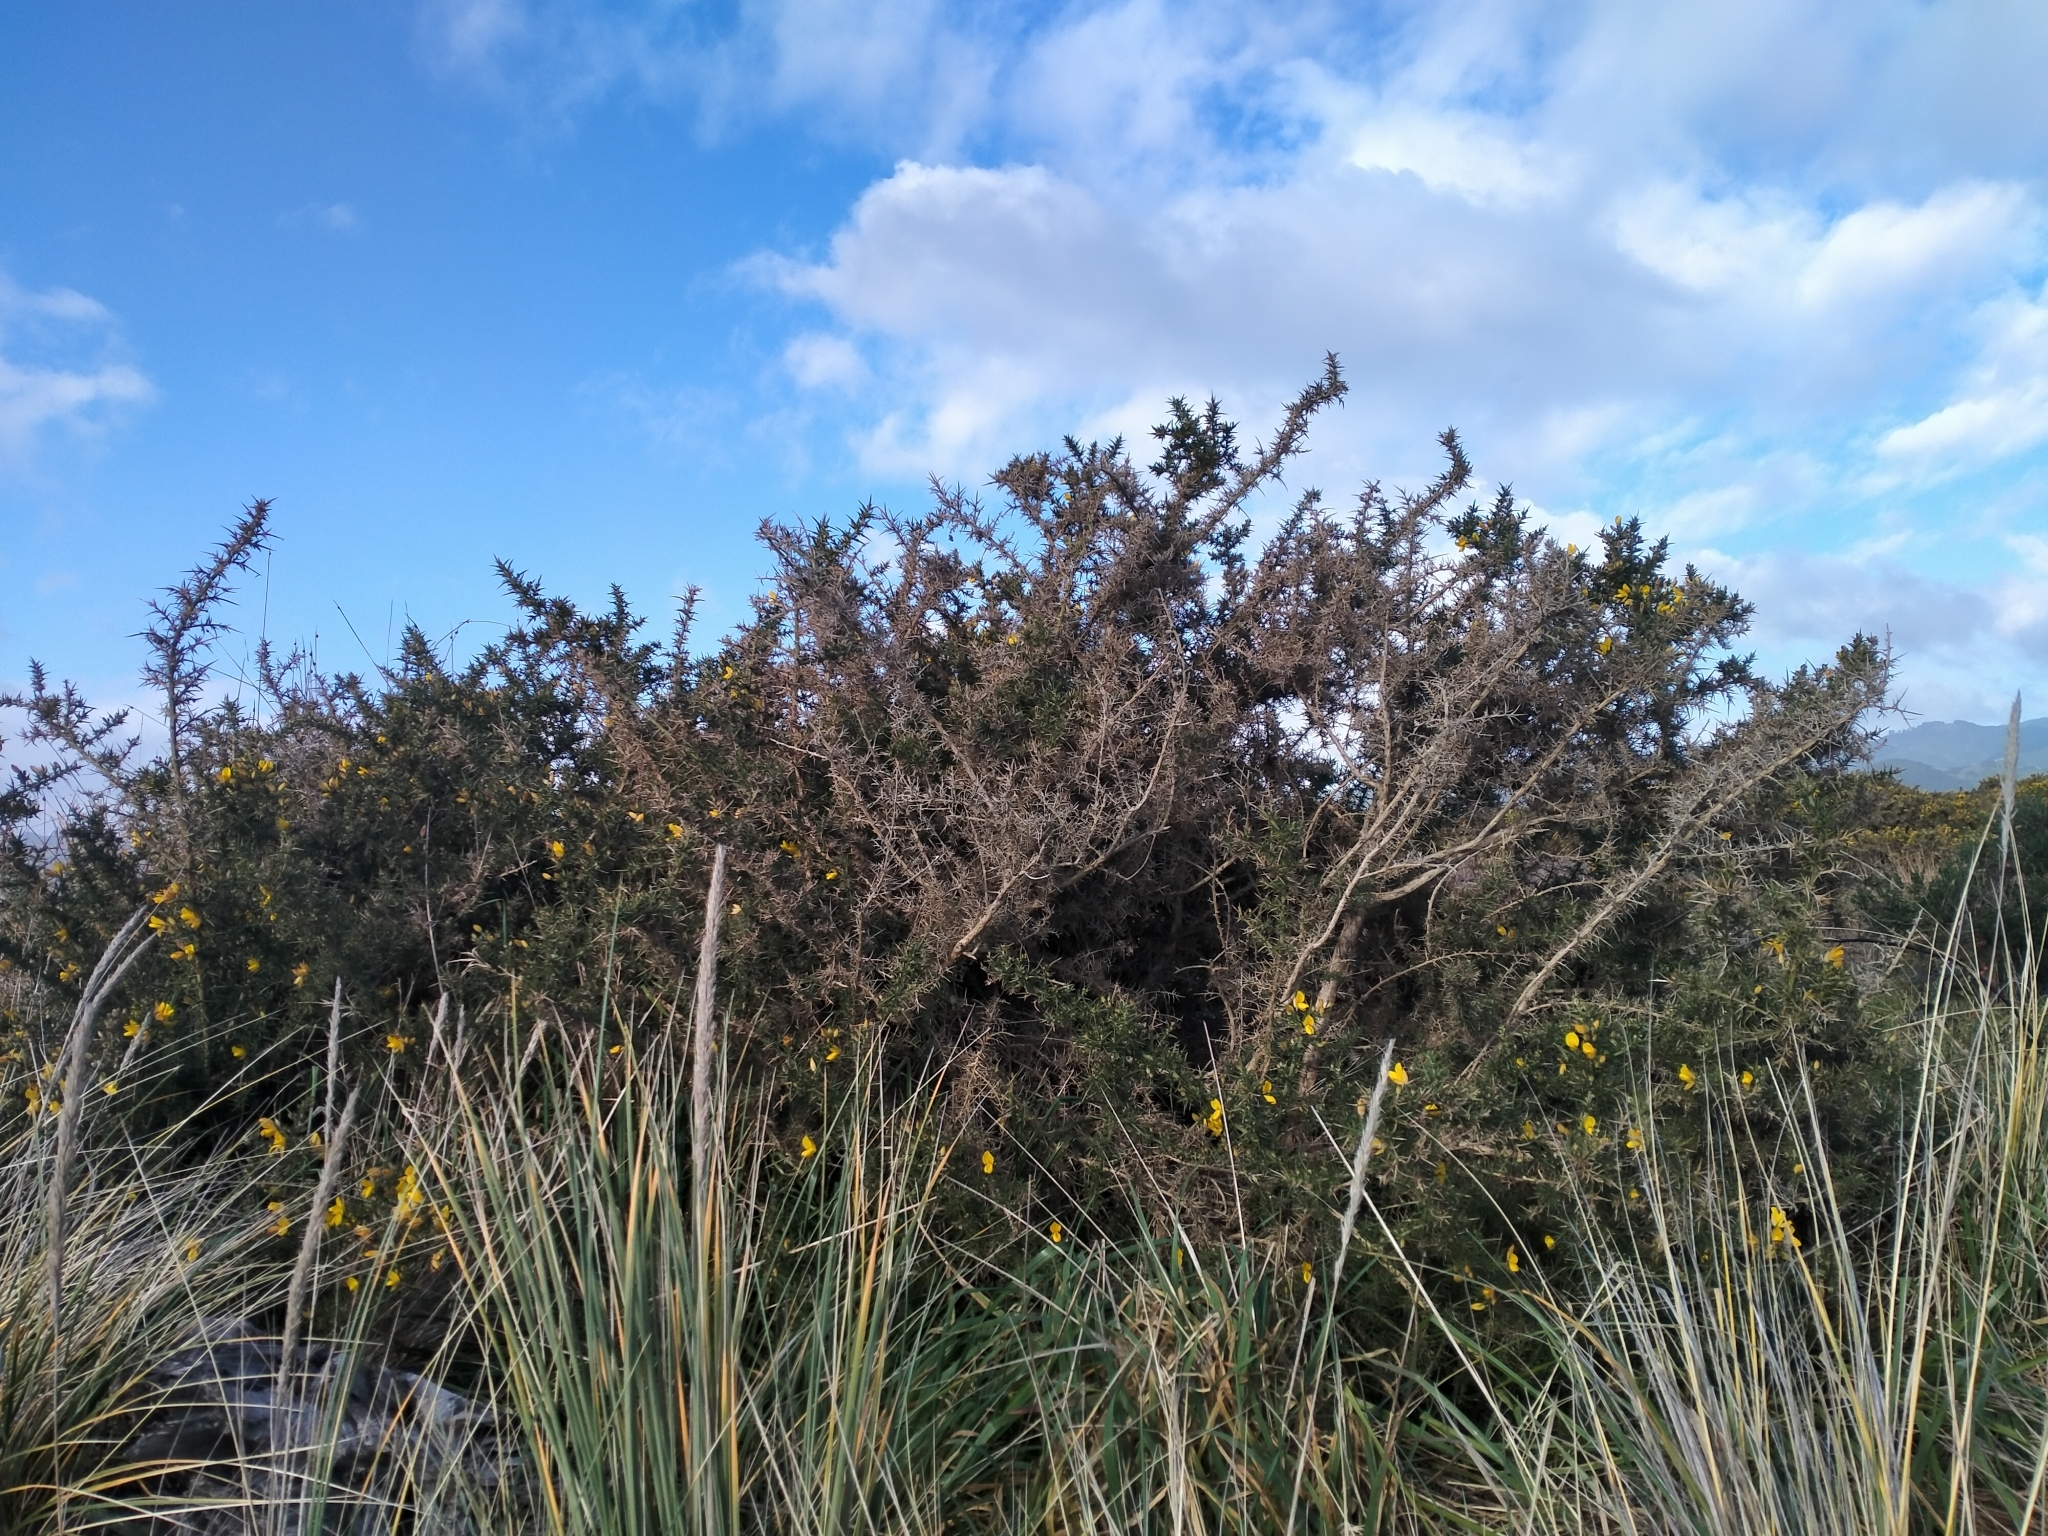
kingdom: Plantae
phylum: Tracheophyta
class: Magnoliopsida
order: Fabales
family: Fabaceae
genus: Ulex
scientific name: Ulex europaeus
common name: Common gorse
